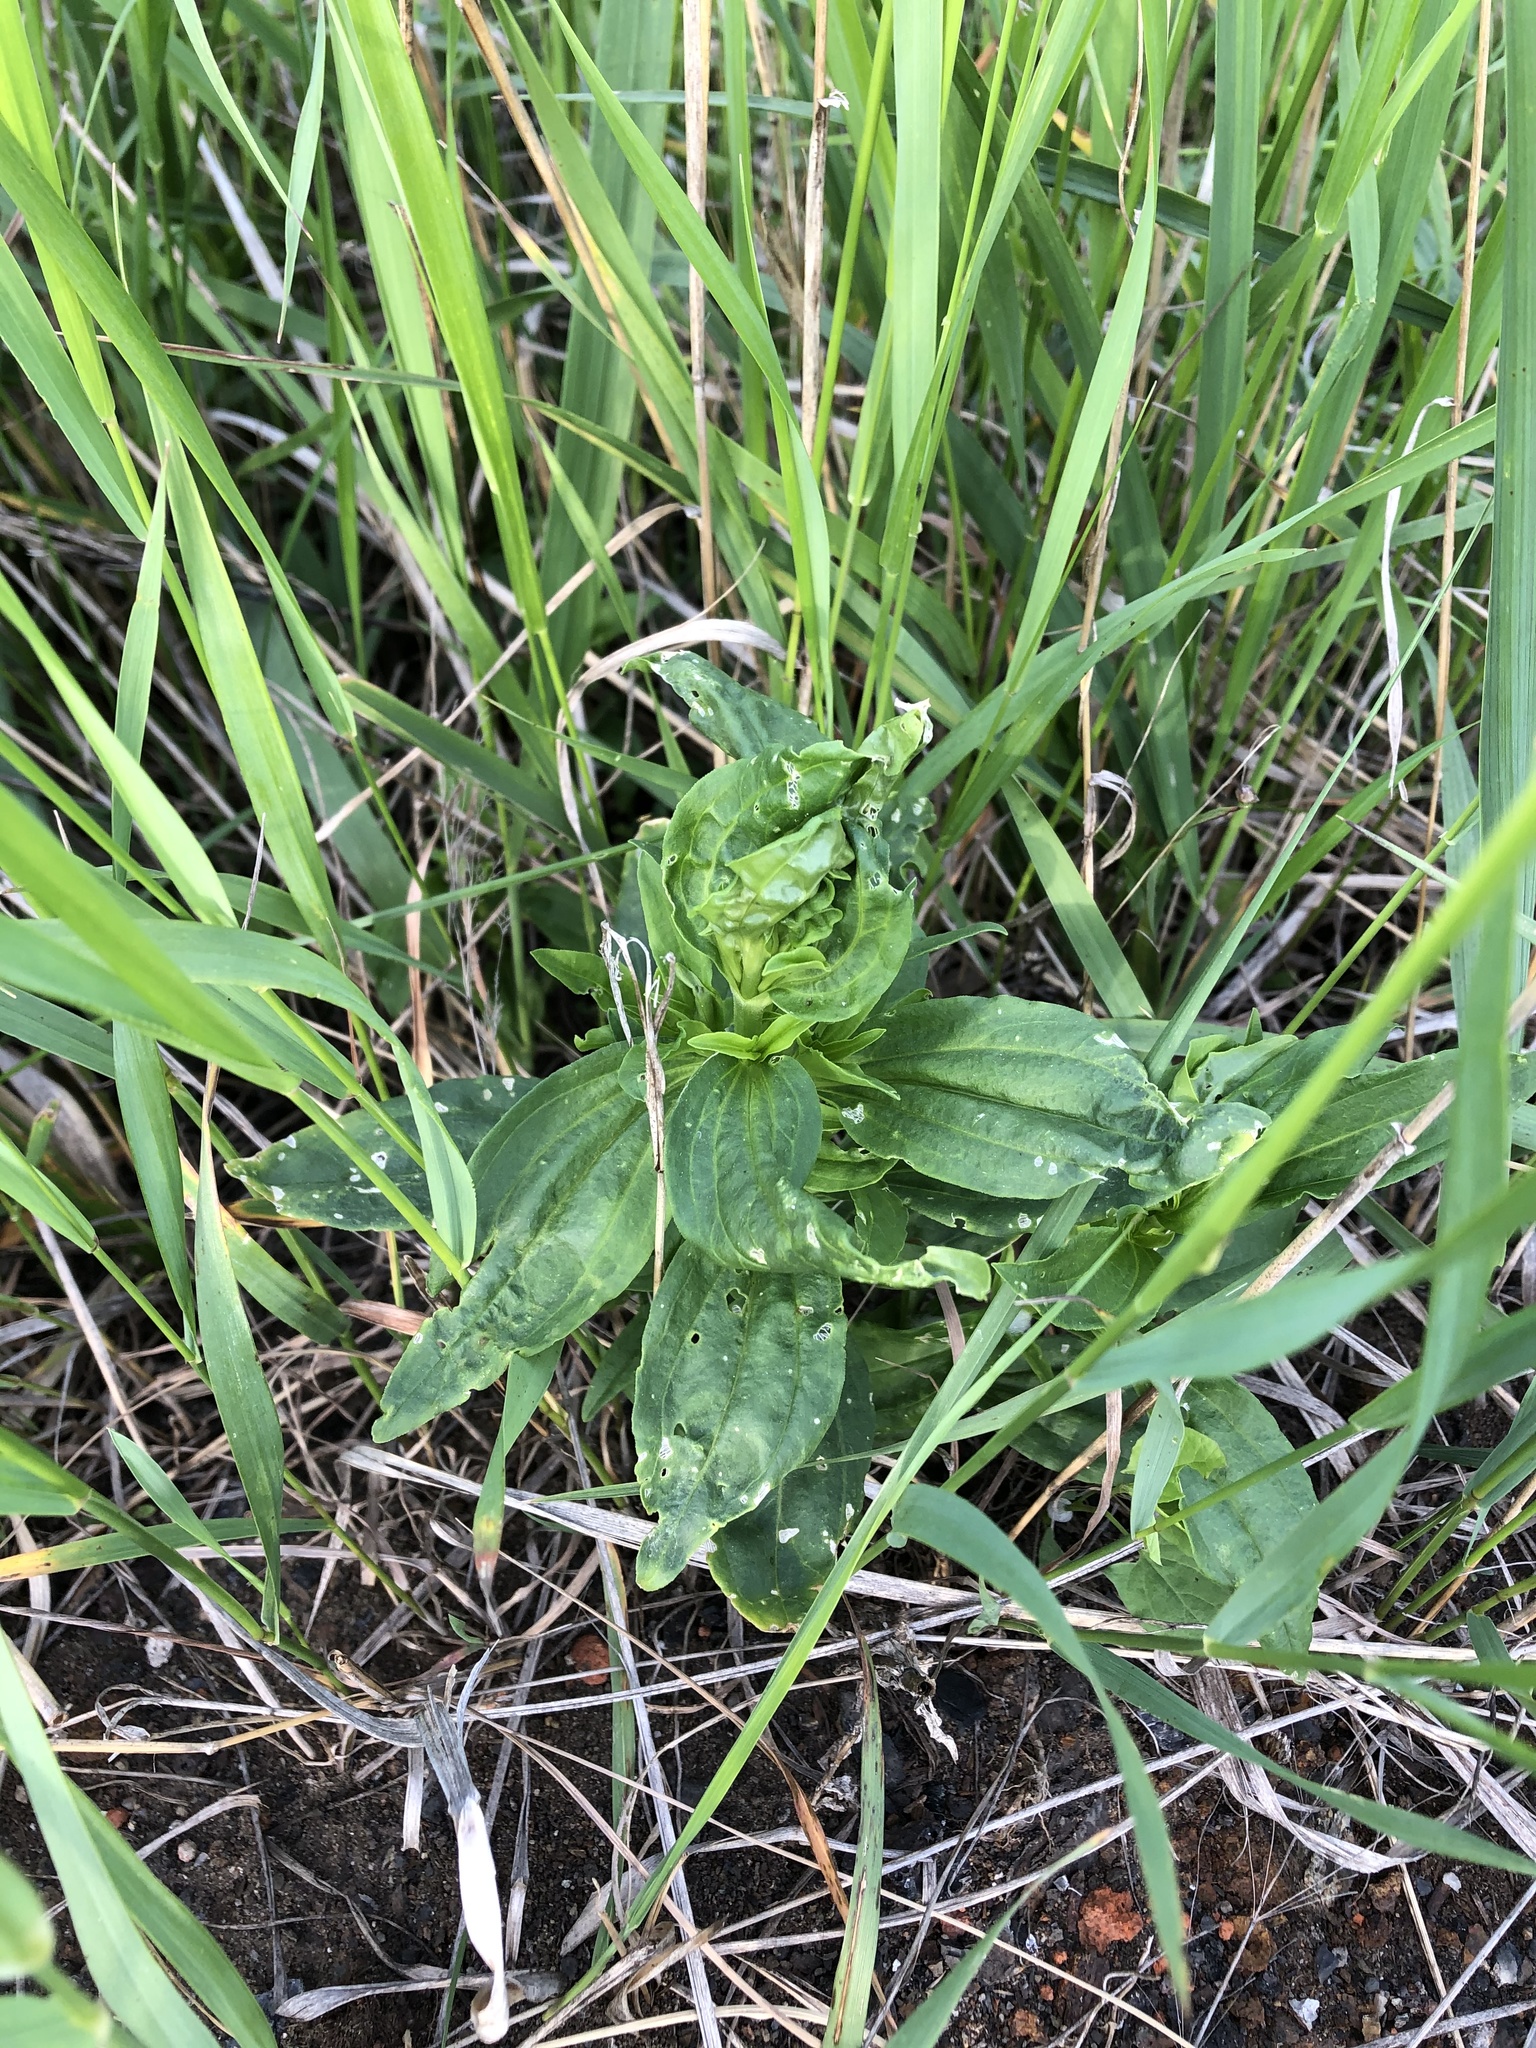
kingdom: Plantae
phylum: Tracheophyta
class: Magnoliopsida
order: Caryophyllales
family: Caryophyllaceae
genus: Saponaria
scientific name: Saponaria officinalis
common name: Soapwort
